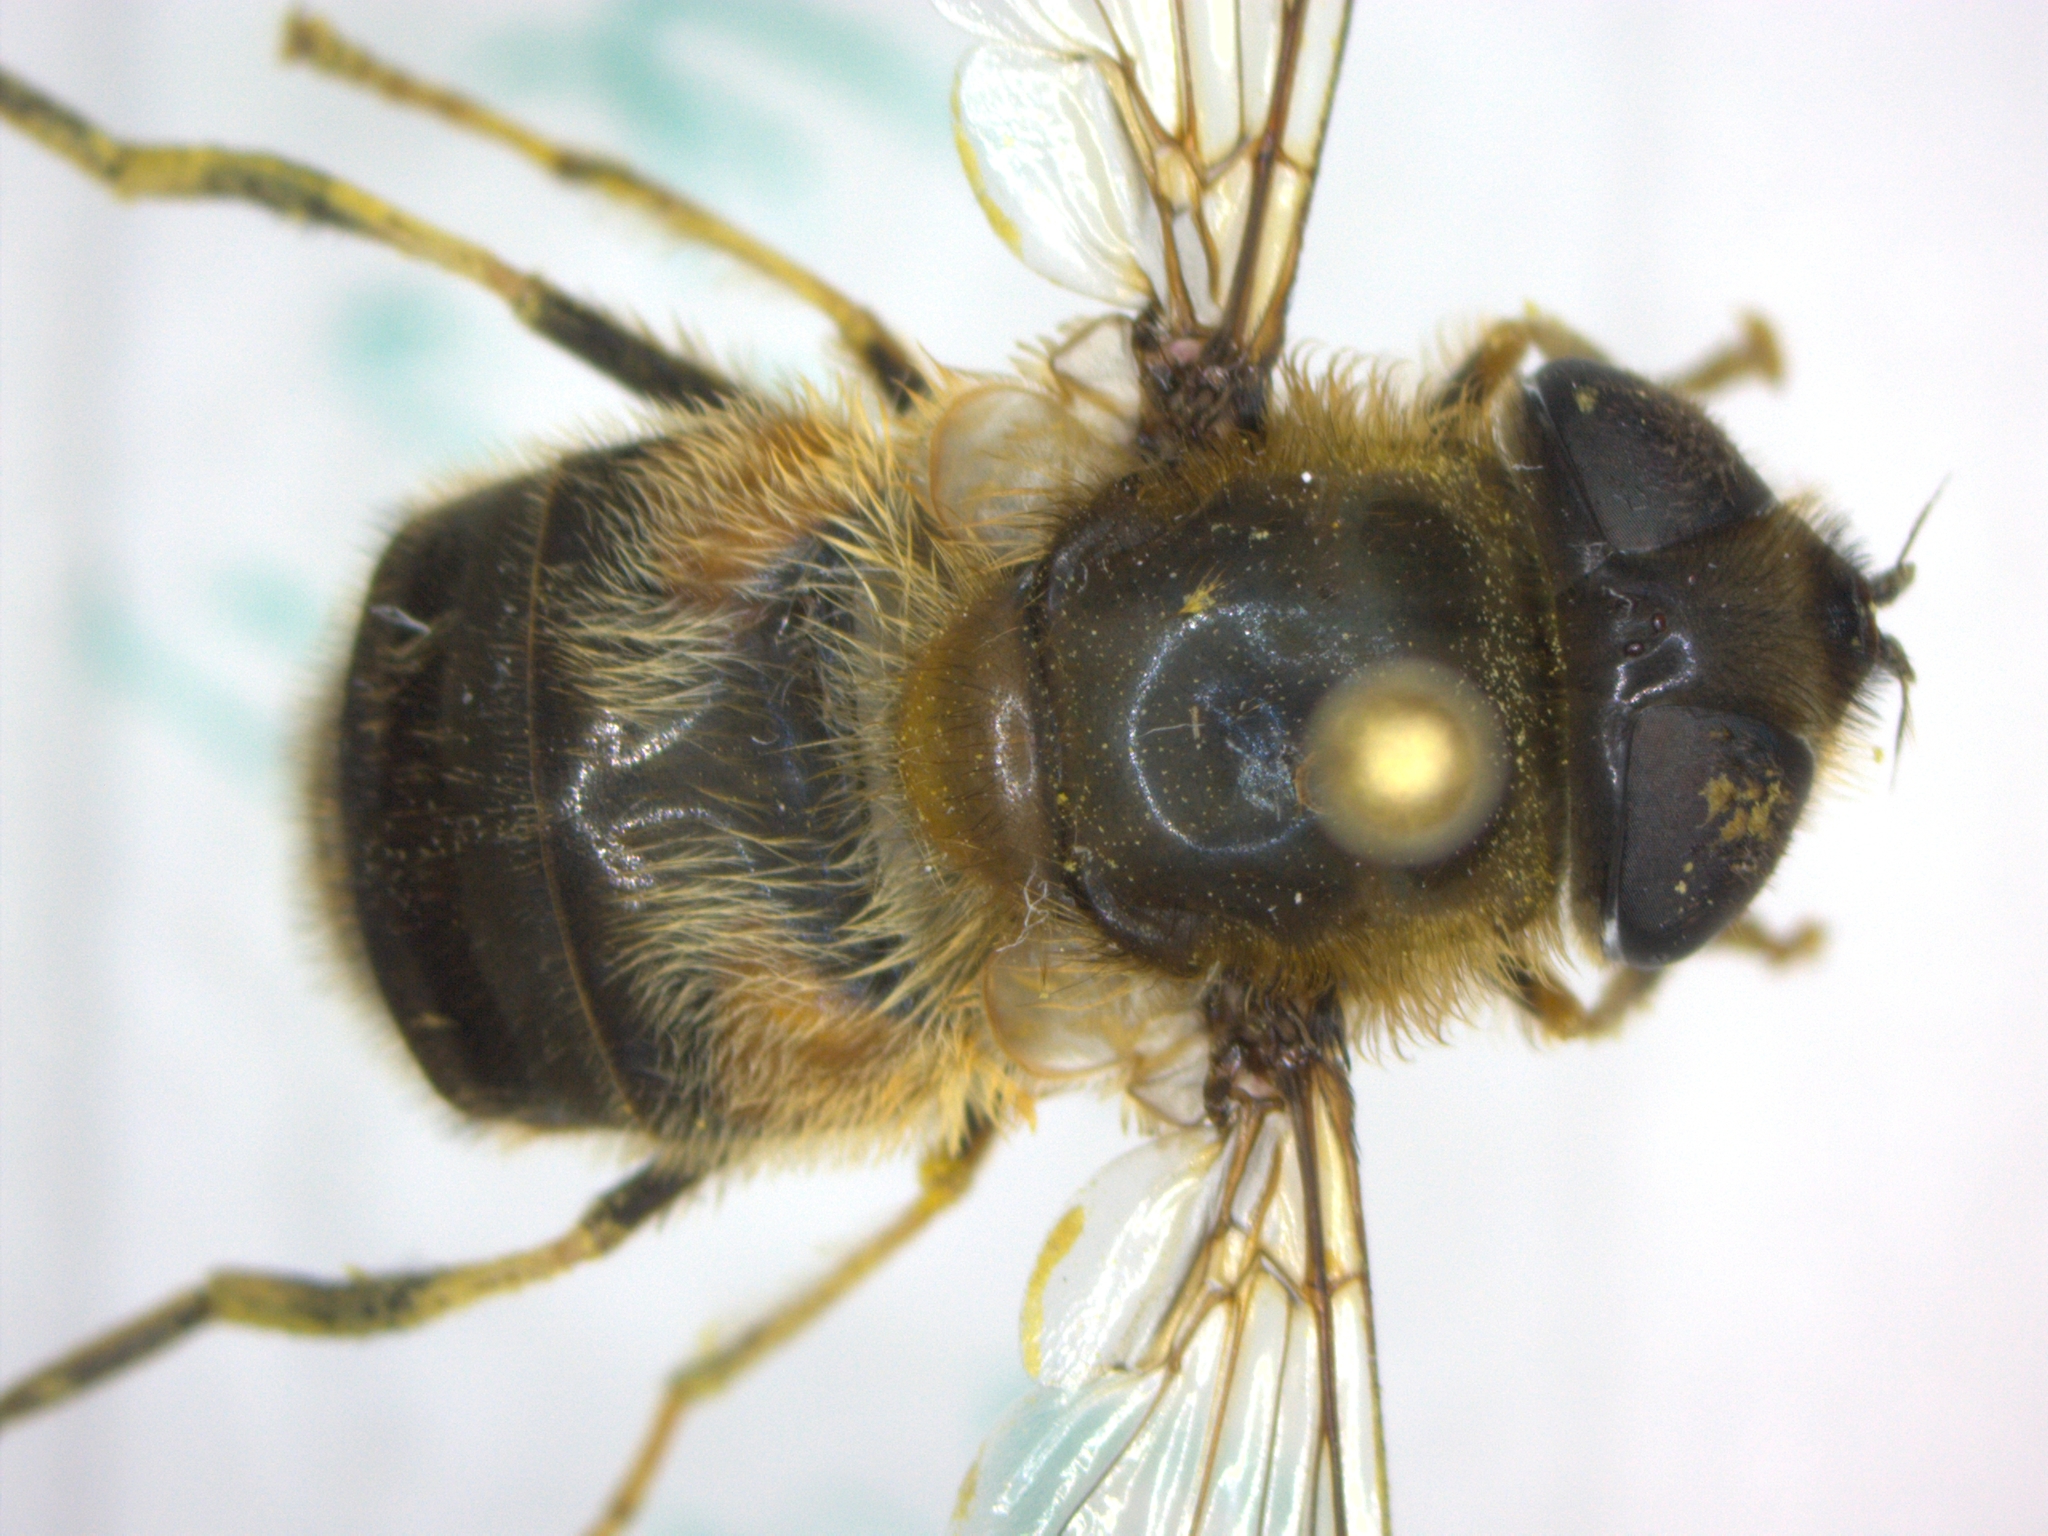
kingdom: Animalia
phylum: Arthropoda
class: Insecta
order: Diptera
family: Syrphidae
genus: Eristalis
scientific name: Eristalis pertinax
